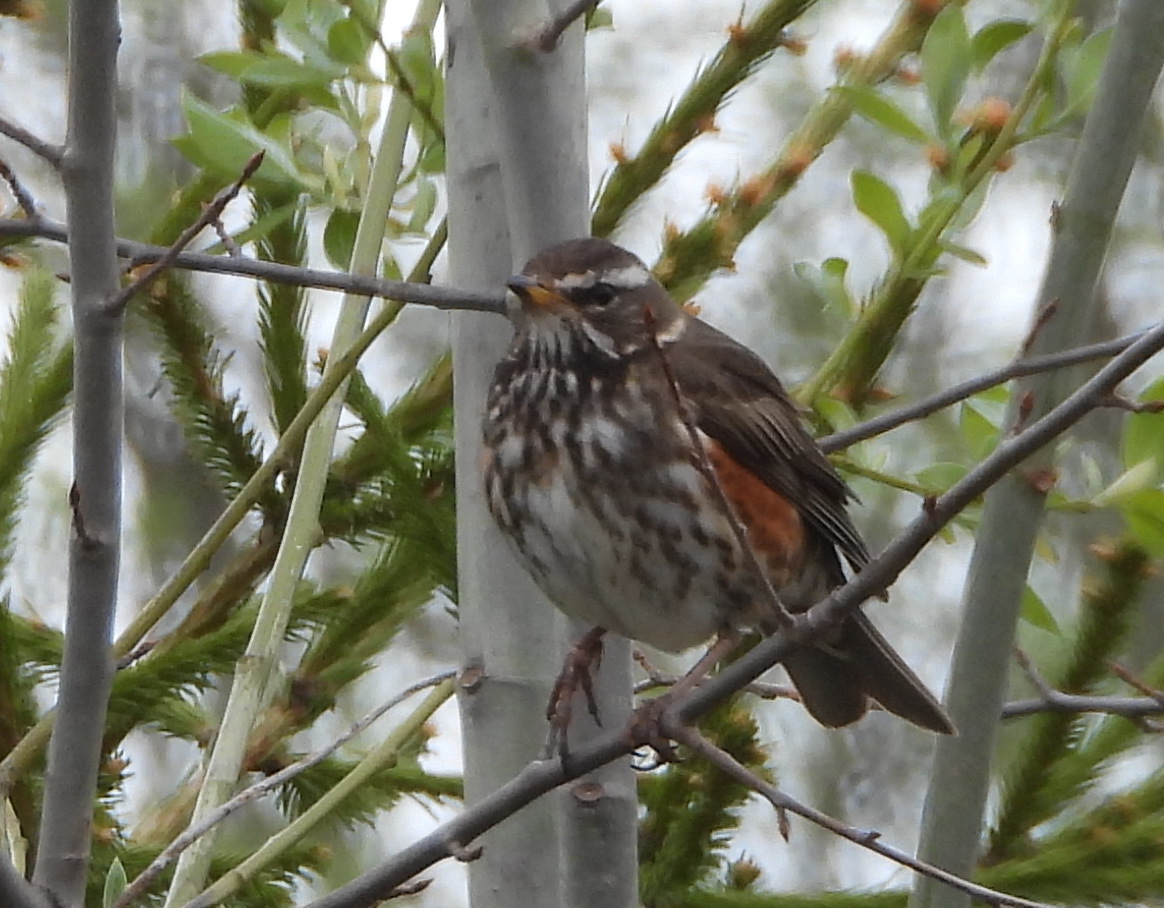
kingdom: Animalia
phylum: Chordata
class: Aves
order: Passeriformes
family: Turdidae
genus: Turdus
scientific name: Turdus iliacus
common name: Redwing
